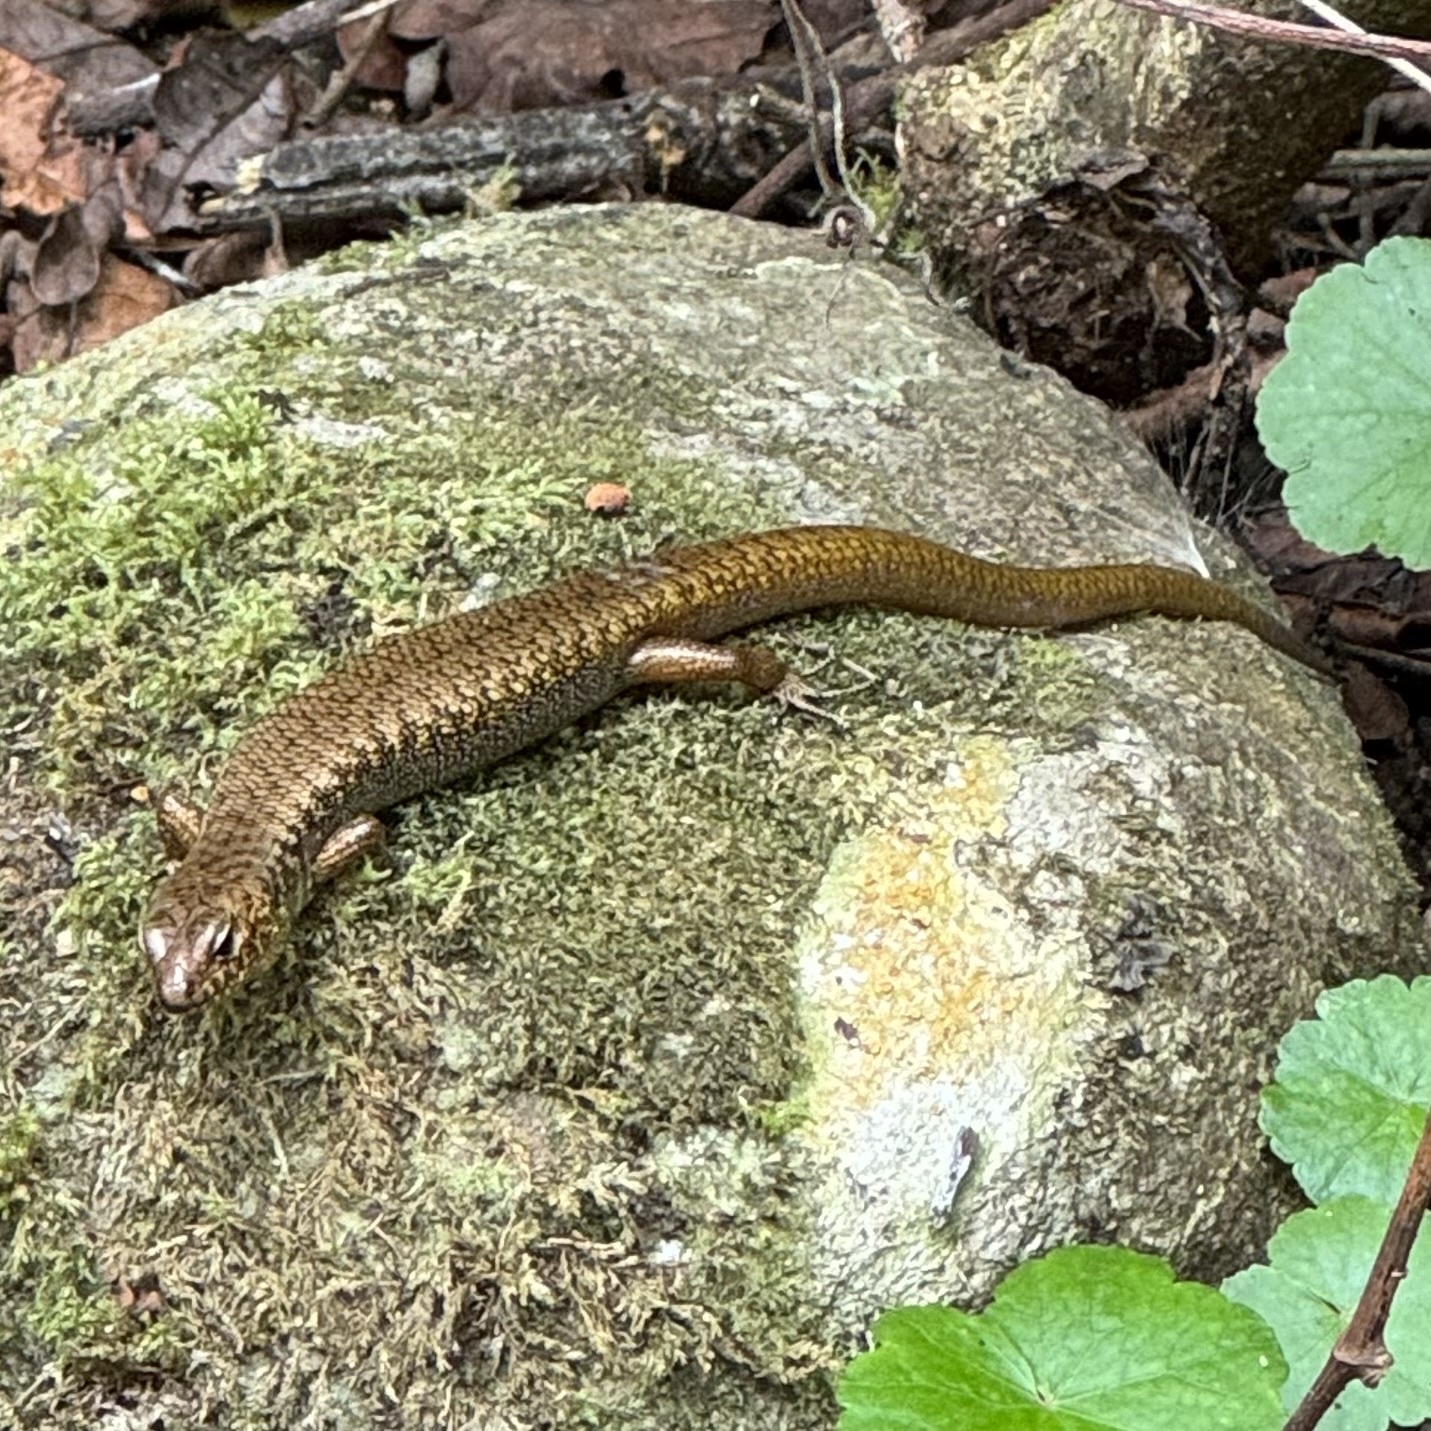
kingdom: Animalia
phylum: Chordata
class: Squamata
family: Scincidae
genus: Silvascincus
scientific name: Silvascincus murrayi
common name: Blue-speckled forest-skink
